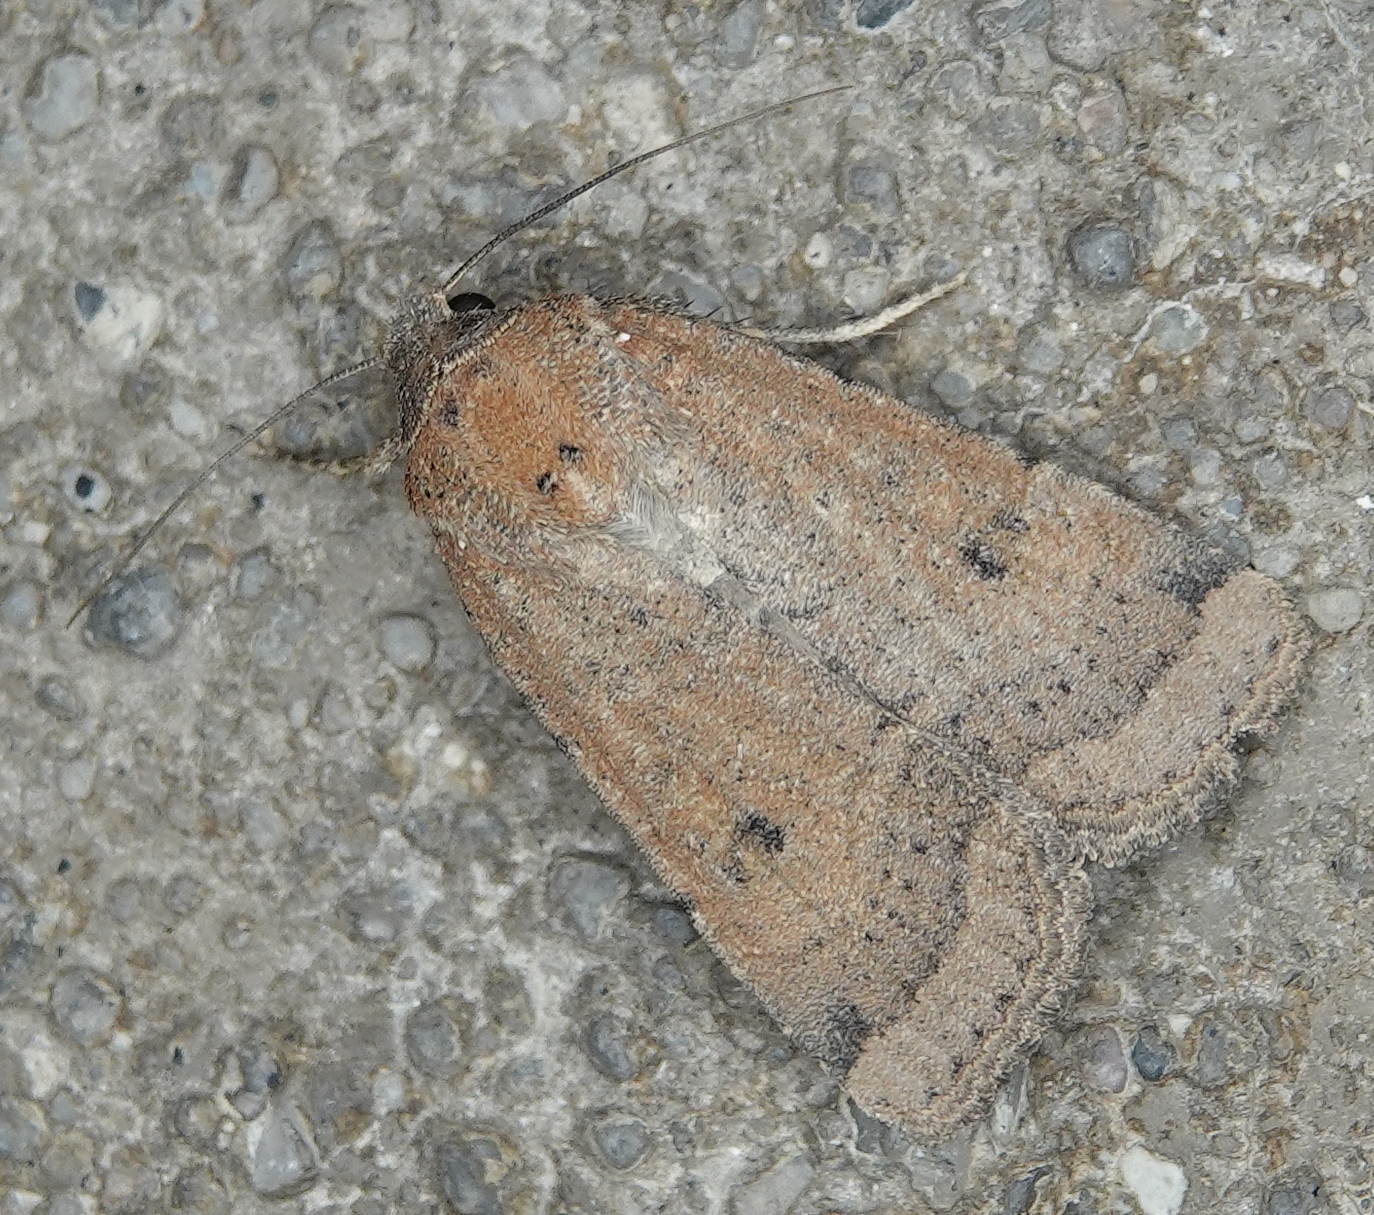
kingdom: Animalia
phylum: Arthropoda
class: Insecta
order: Lepidoptera
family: Noctuidae
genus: Abagrotis
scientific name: Abagrotis orbis
